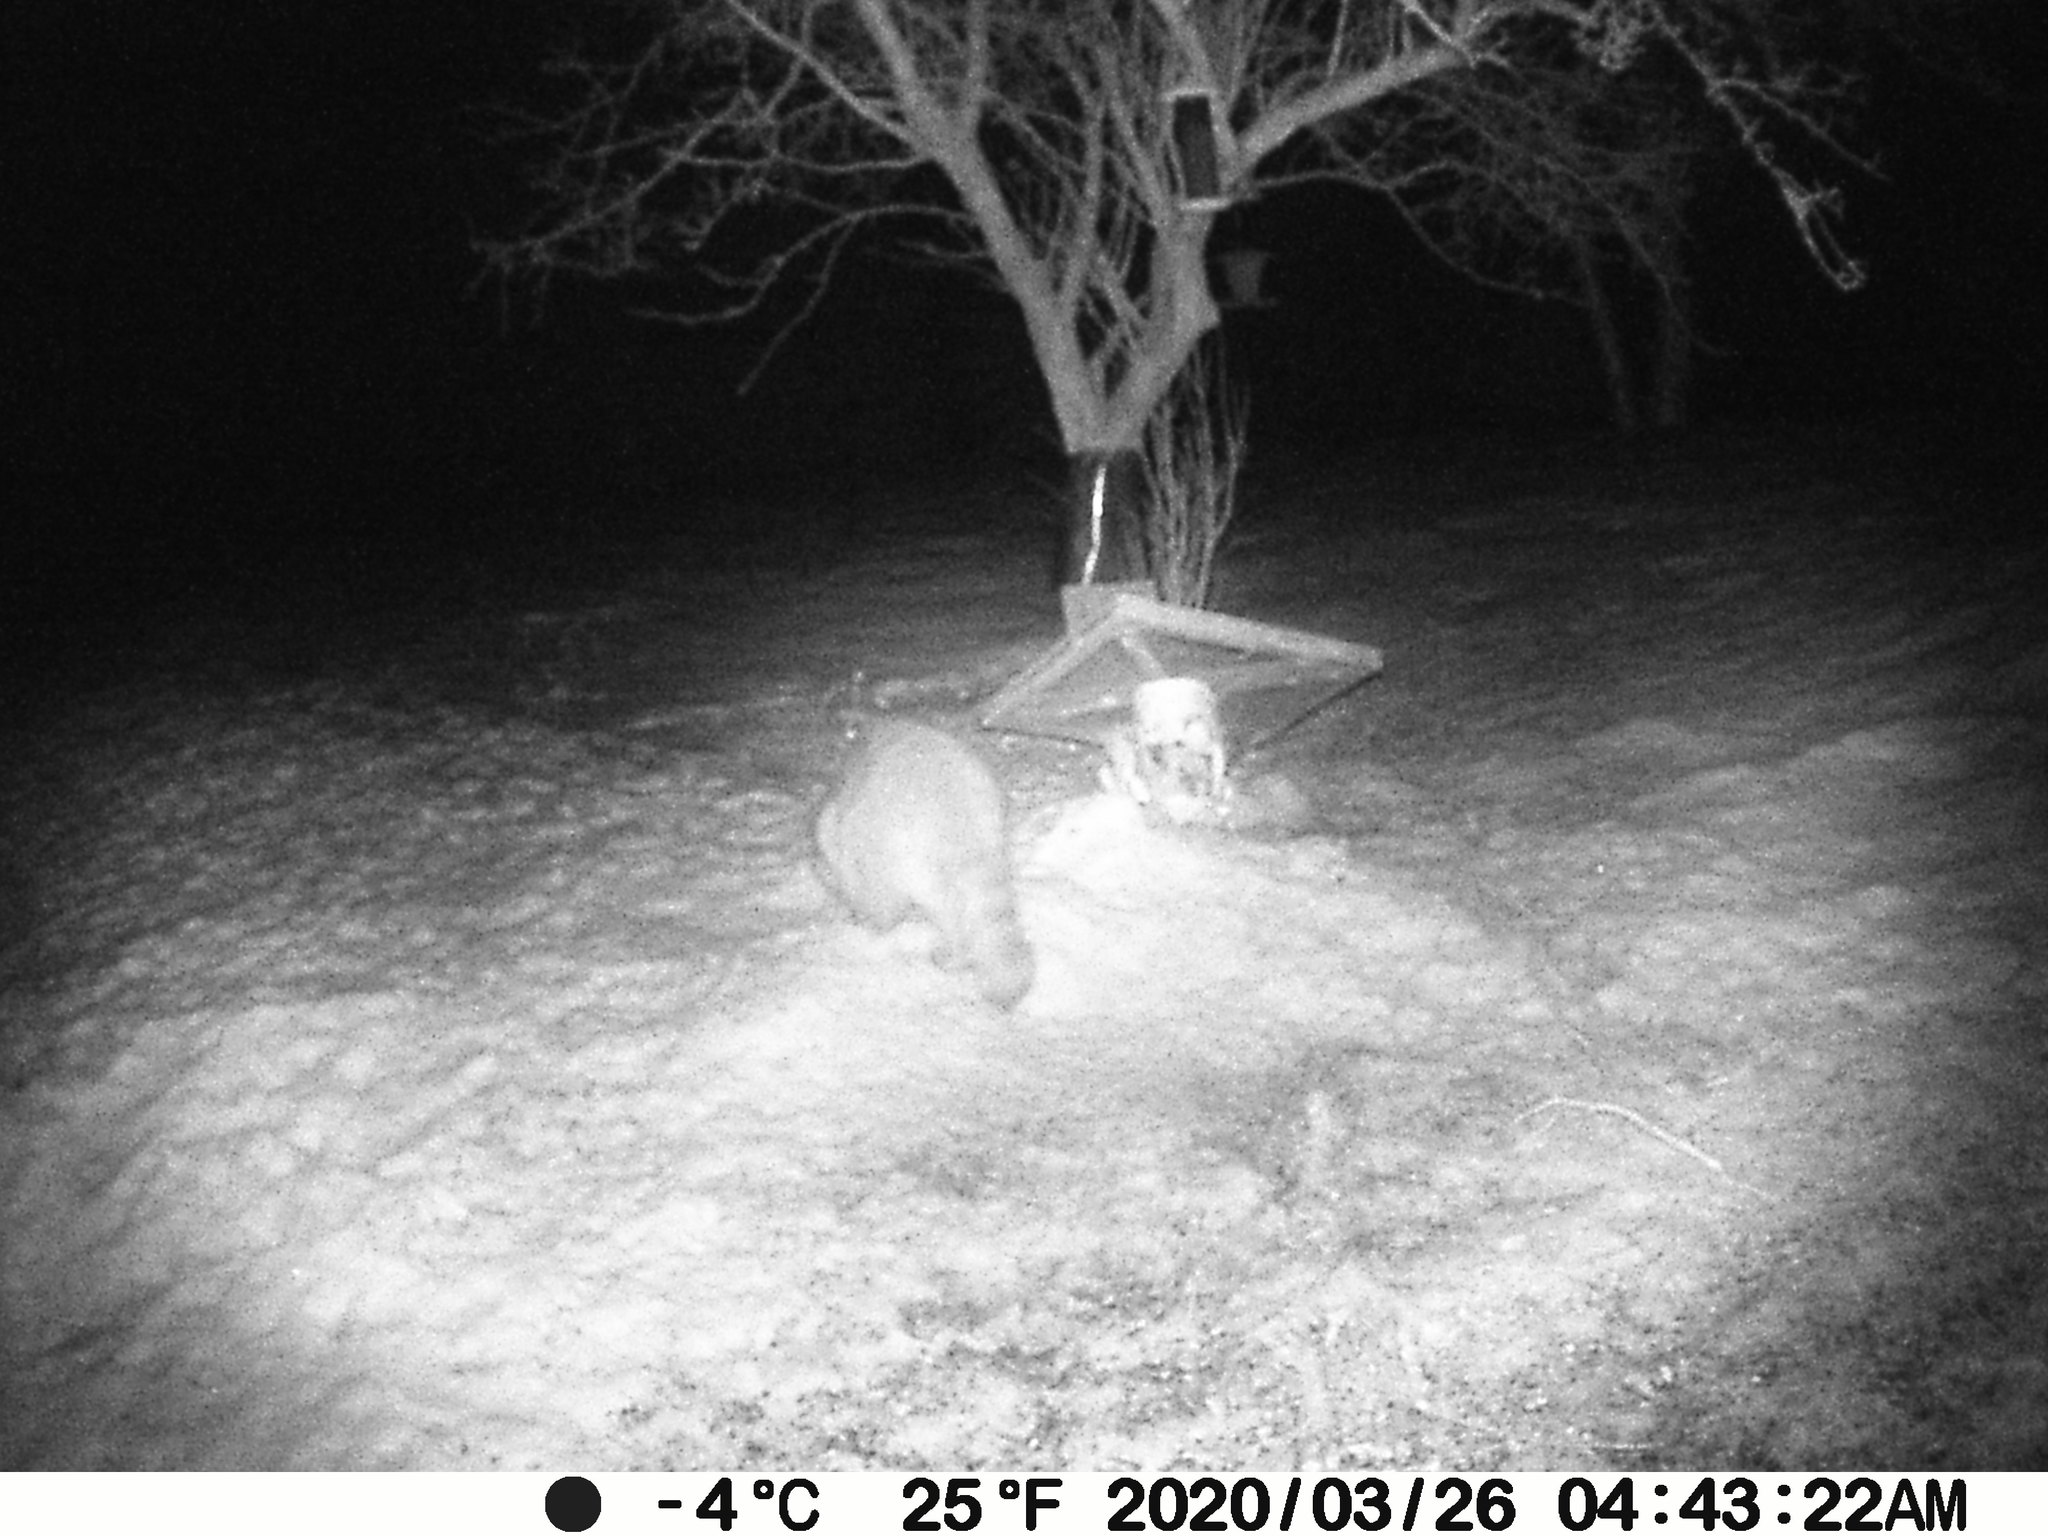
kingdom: Animalia
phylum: Chordata
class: Mammalia
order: Carnivora
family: Procyonidae
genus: Procyon
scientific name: Procyon lotor
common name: Raccoon
